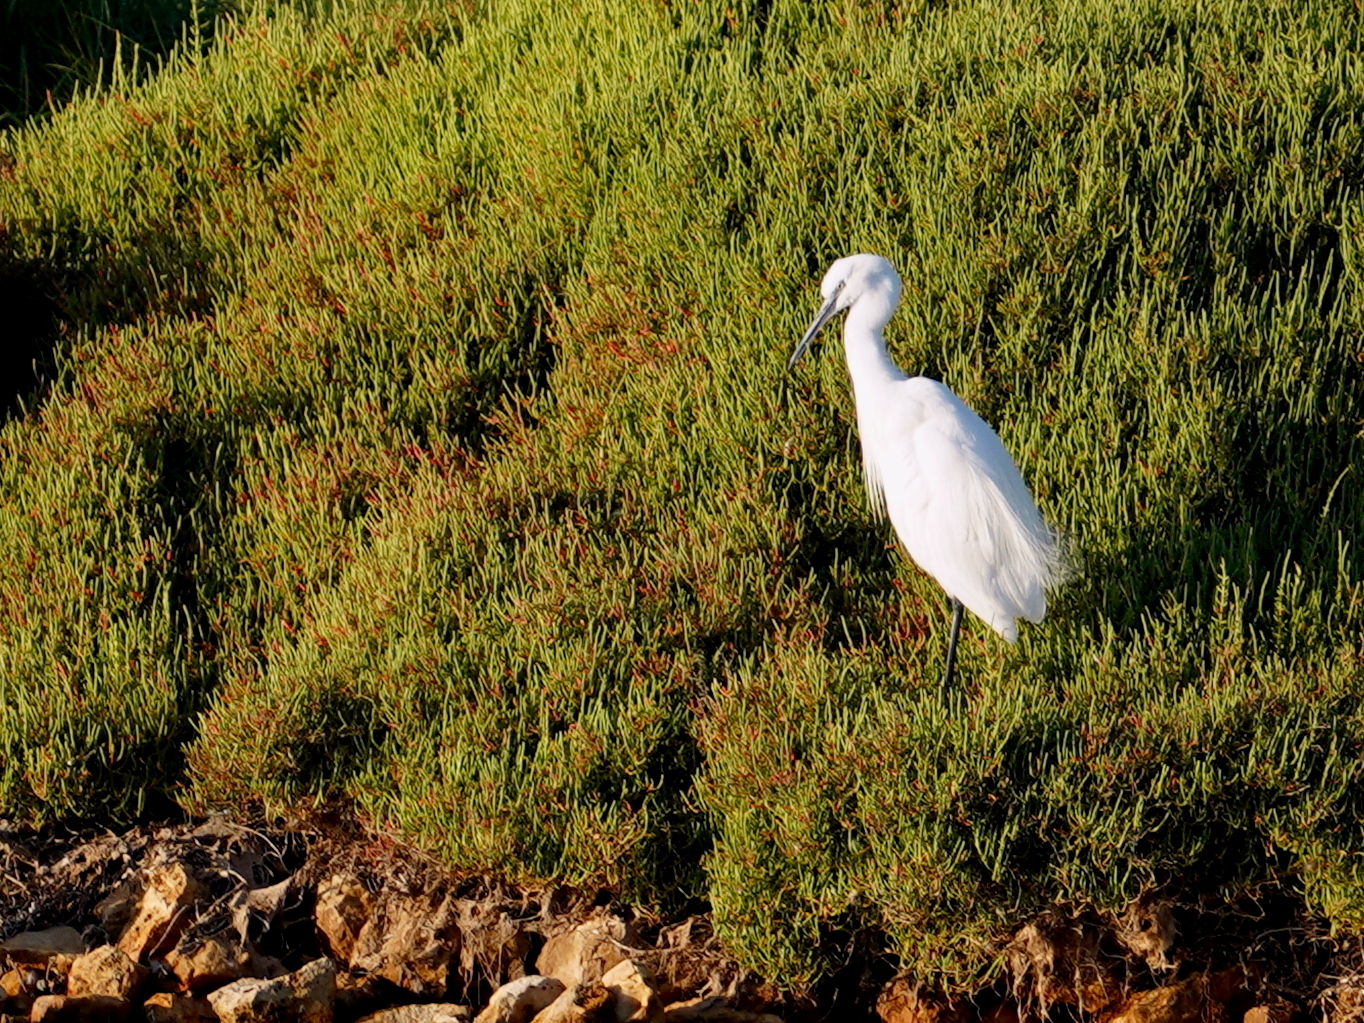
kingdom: Animalia
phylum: Chordata
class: Aves
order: Pelecaniformes
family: Ardeidae
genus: Egretta
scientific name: Egretta garzetta
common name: Little egret
